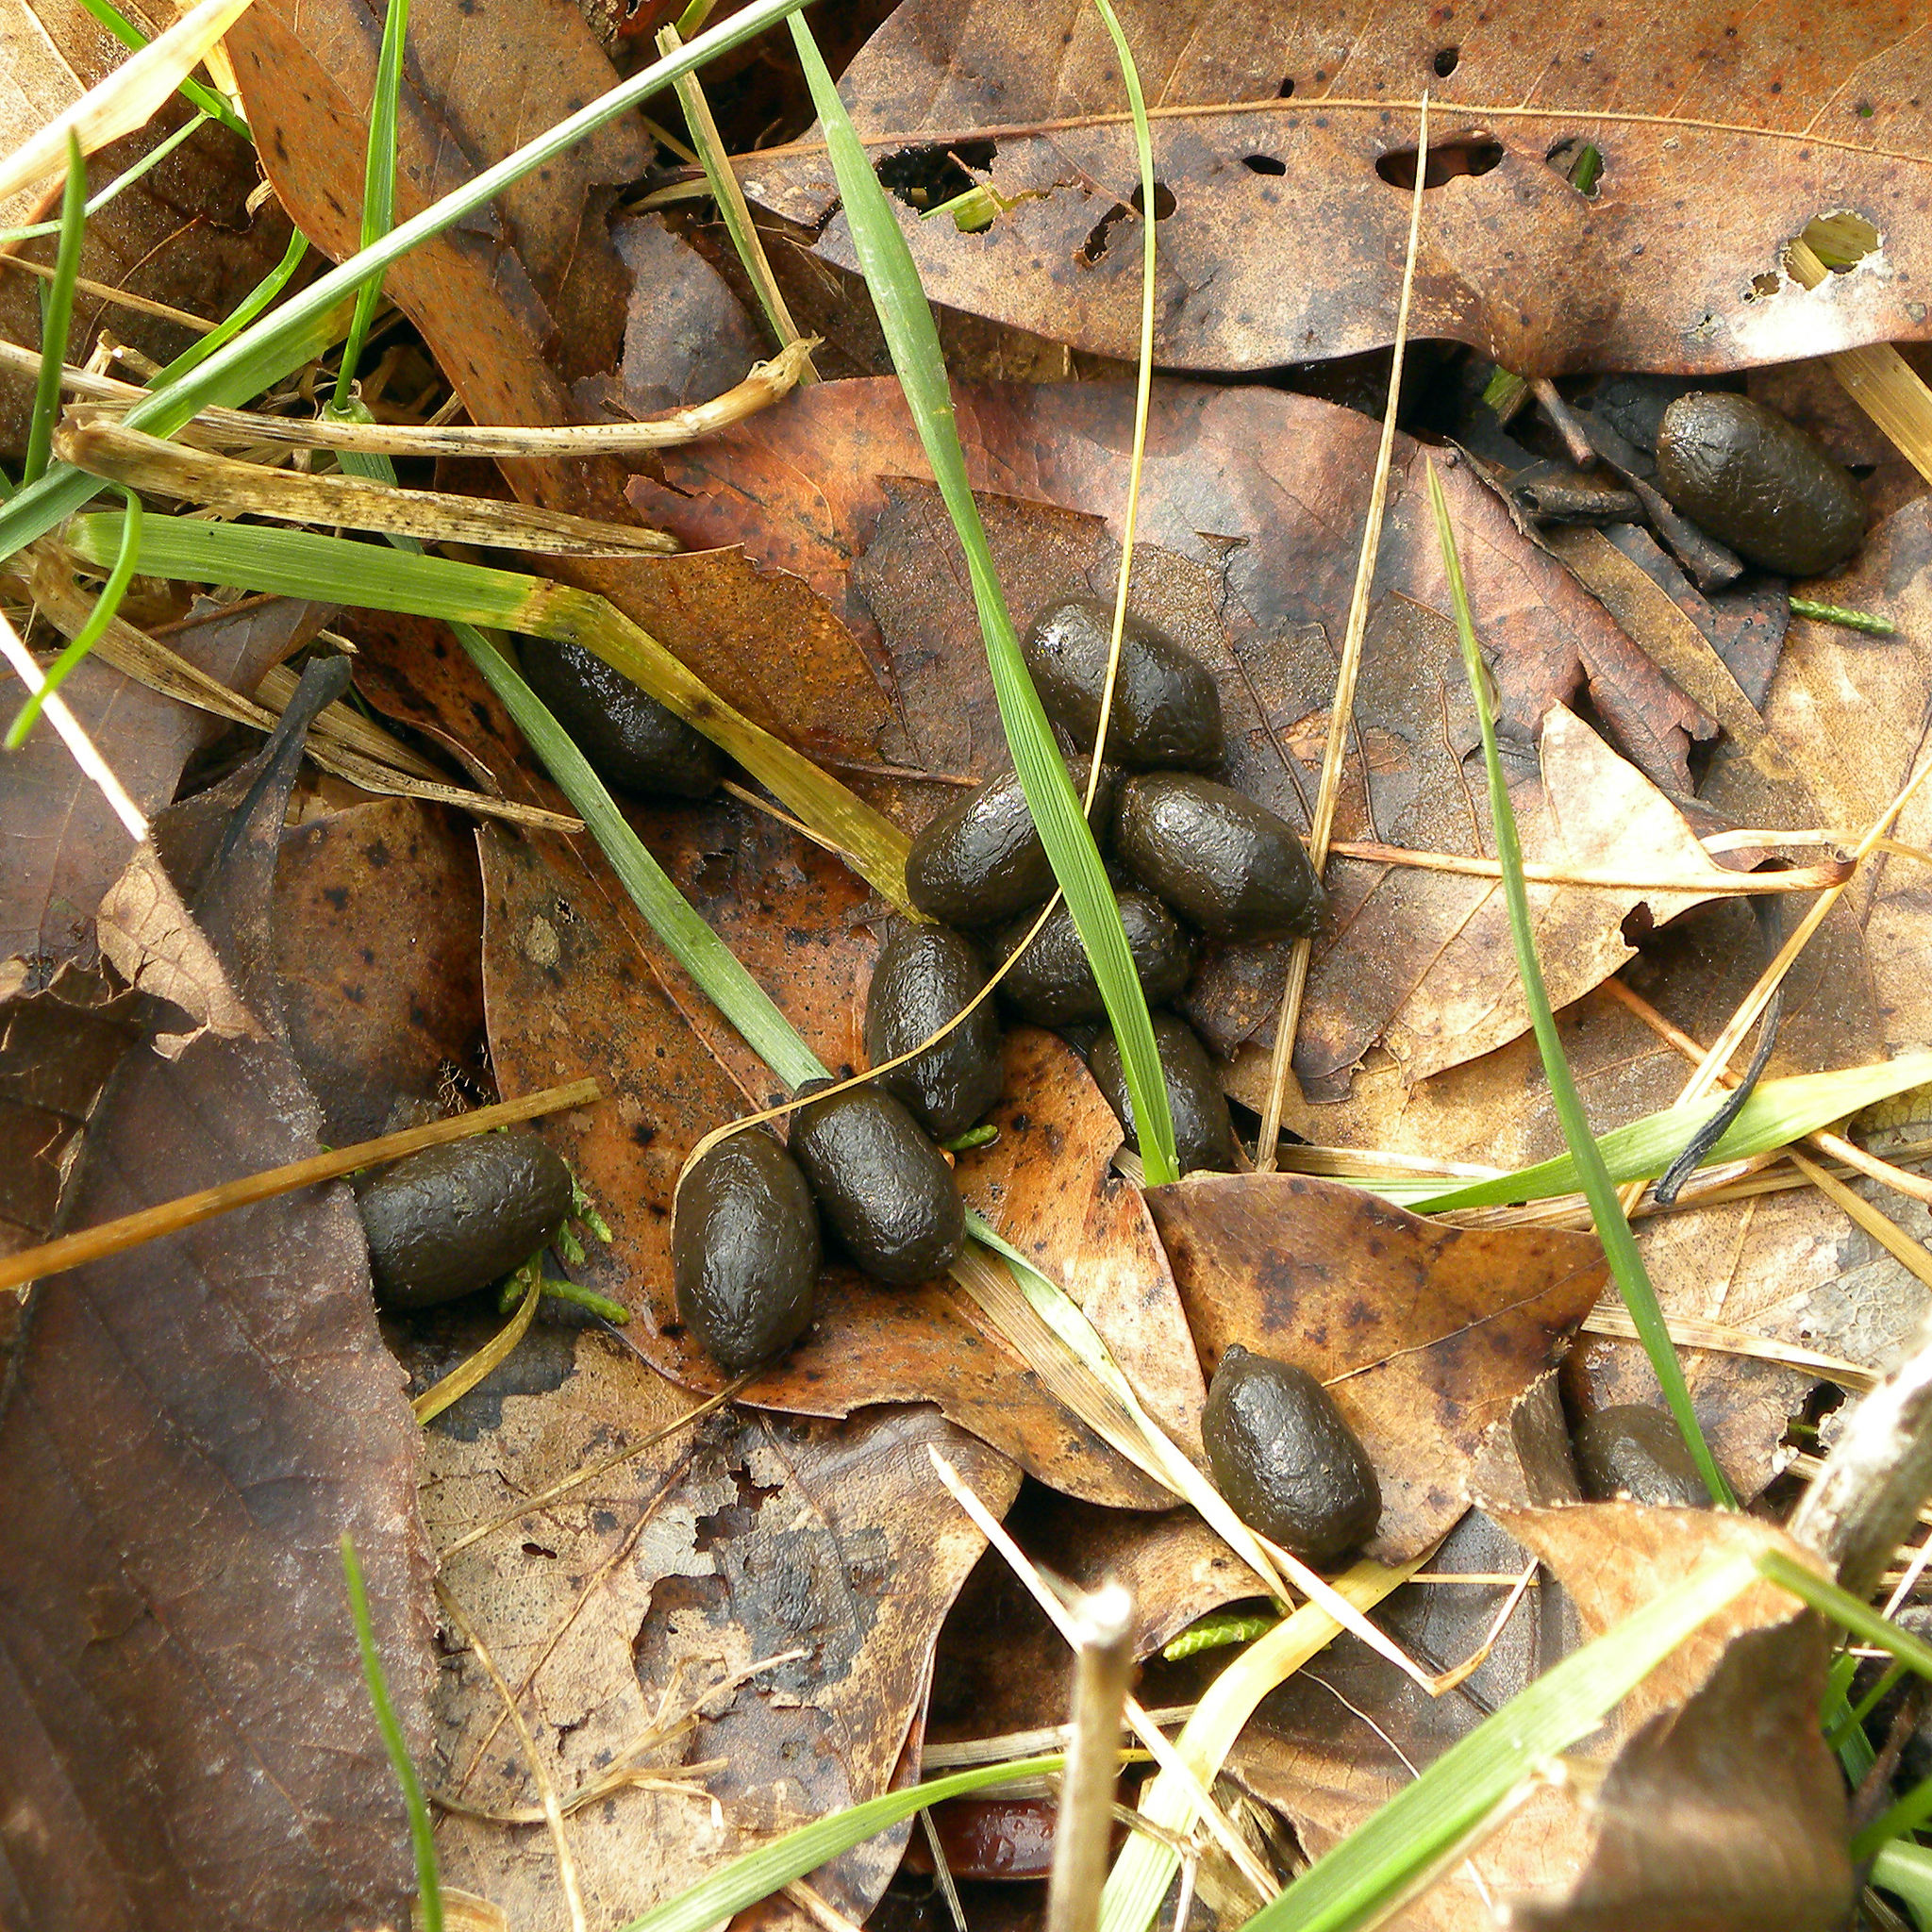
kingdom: Animalia
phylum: Chordata
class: Mammalia
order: Artiodactyla
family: Cervidae
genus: Odocoileus
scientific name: Odocoileus virginianus
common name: White-tailed deer
